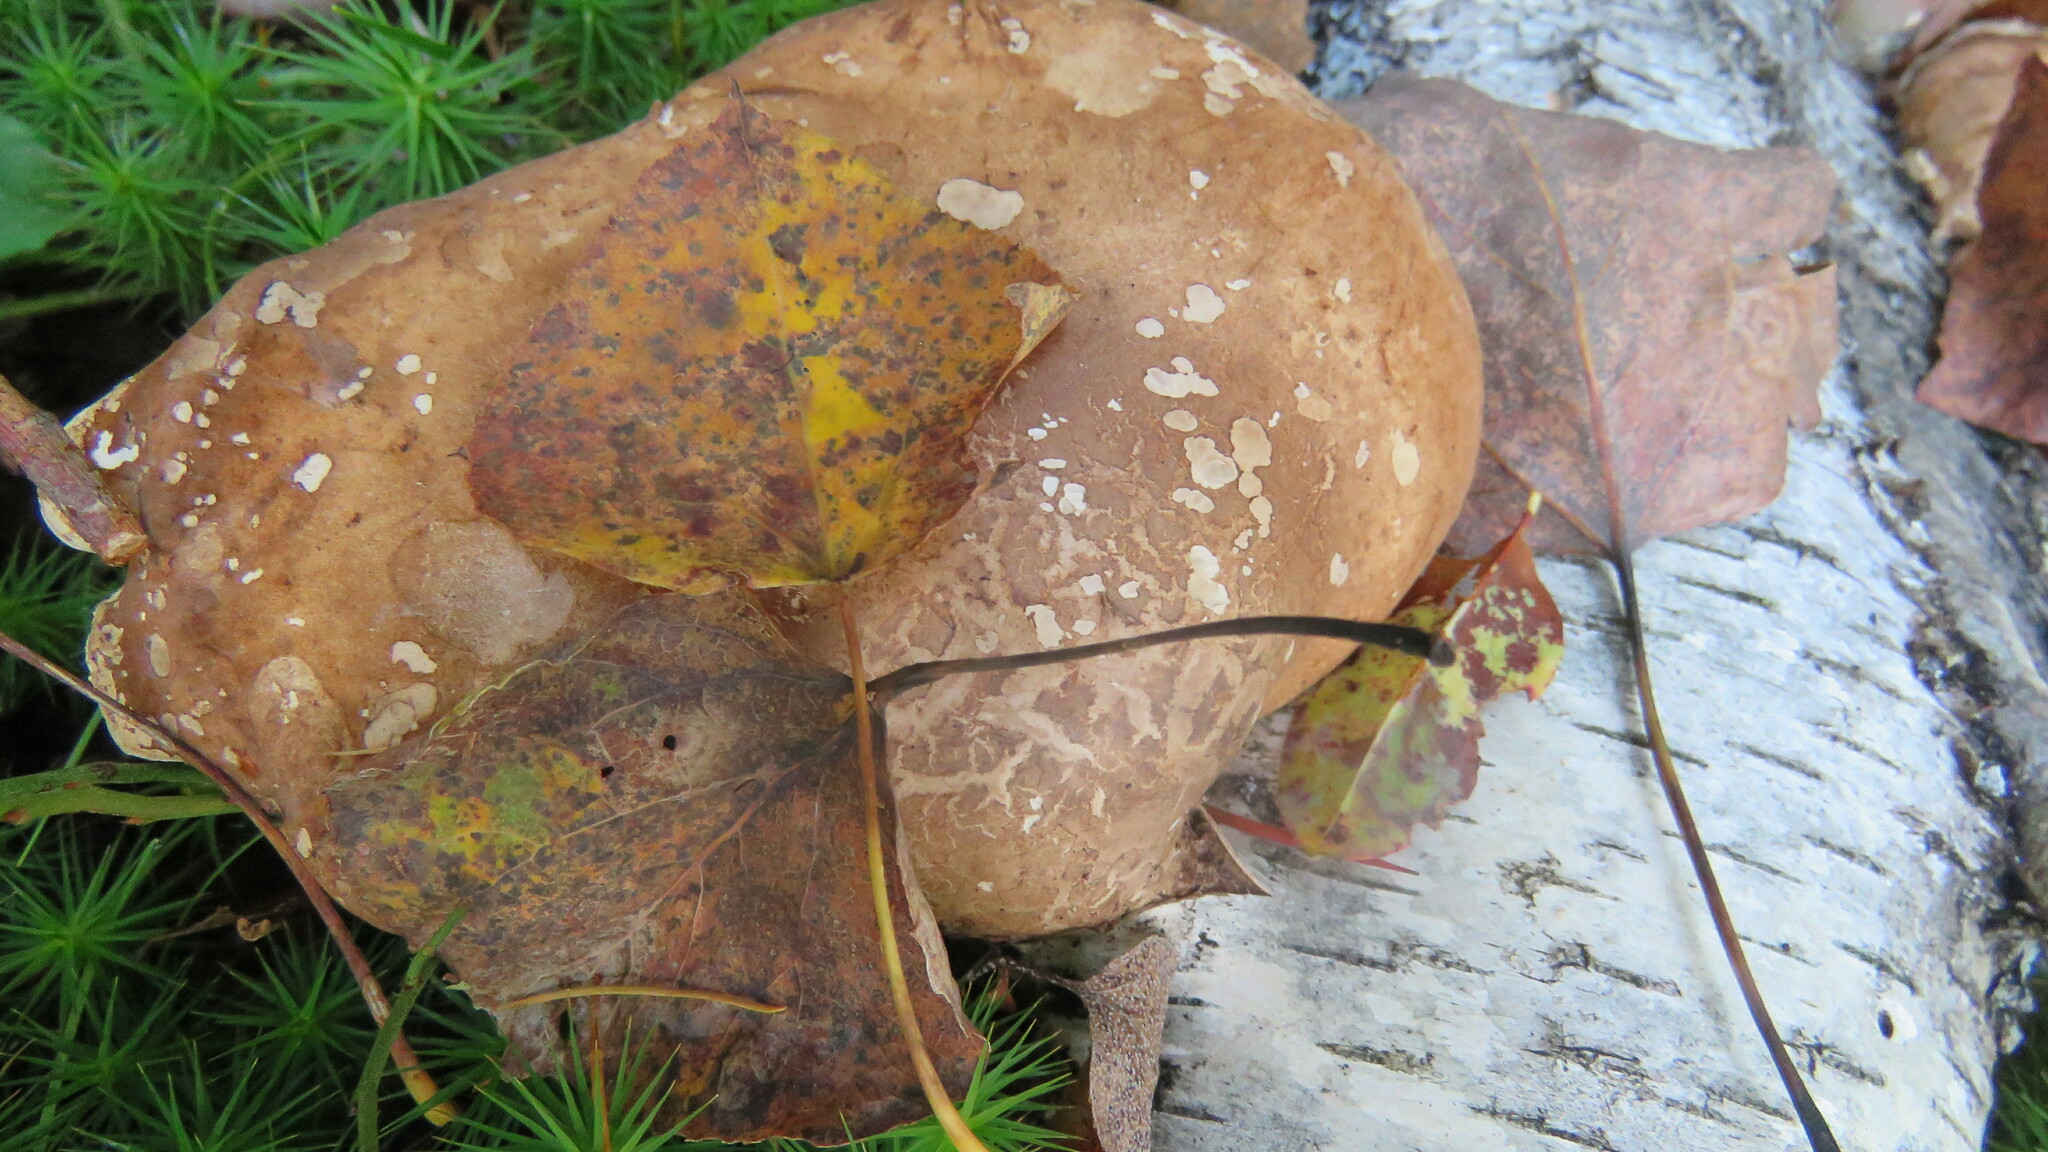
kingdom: Fungi
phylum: Basidiomycota
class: Agaricomycetes
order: Polyporales
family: Fomitopsidaceae
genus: Fomitopsis
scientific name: Fomitopsis betulina
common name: Birch polypore
